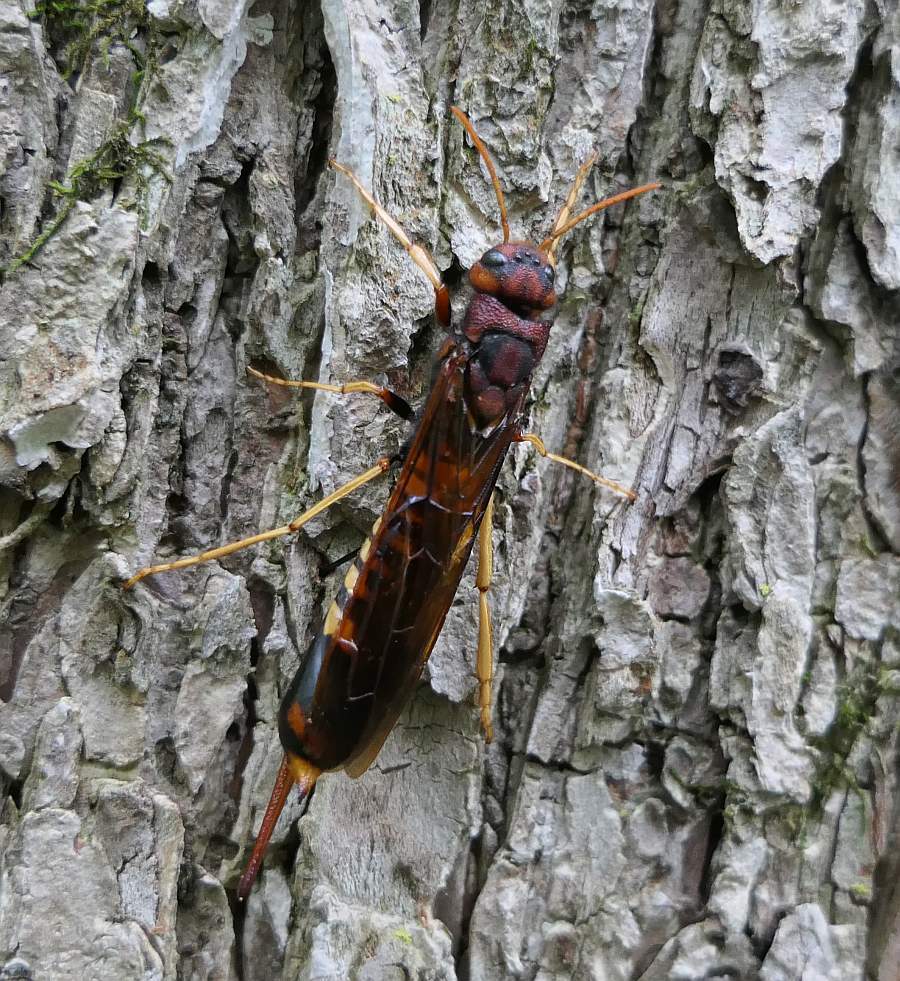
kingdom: Animalia
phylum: Arthropoda
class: Insecta
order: Hymenoptera
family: Siricidae
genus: Tremex
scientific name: Tremex columba
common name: Wasp
